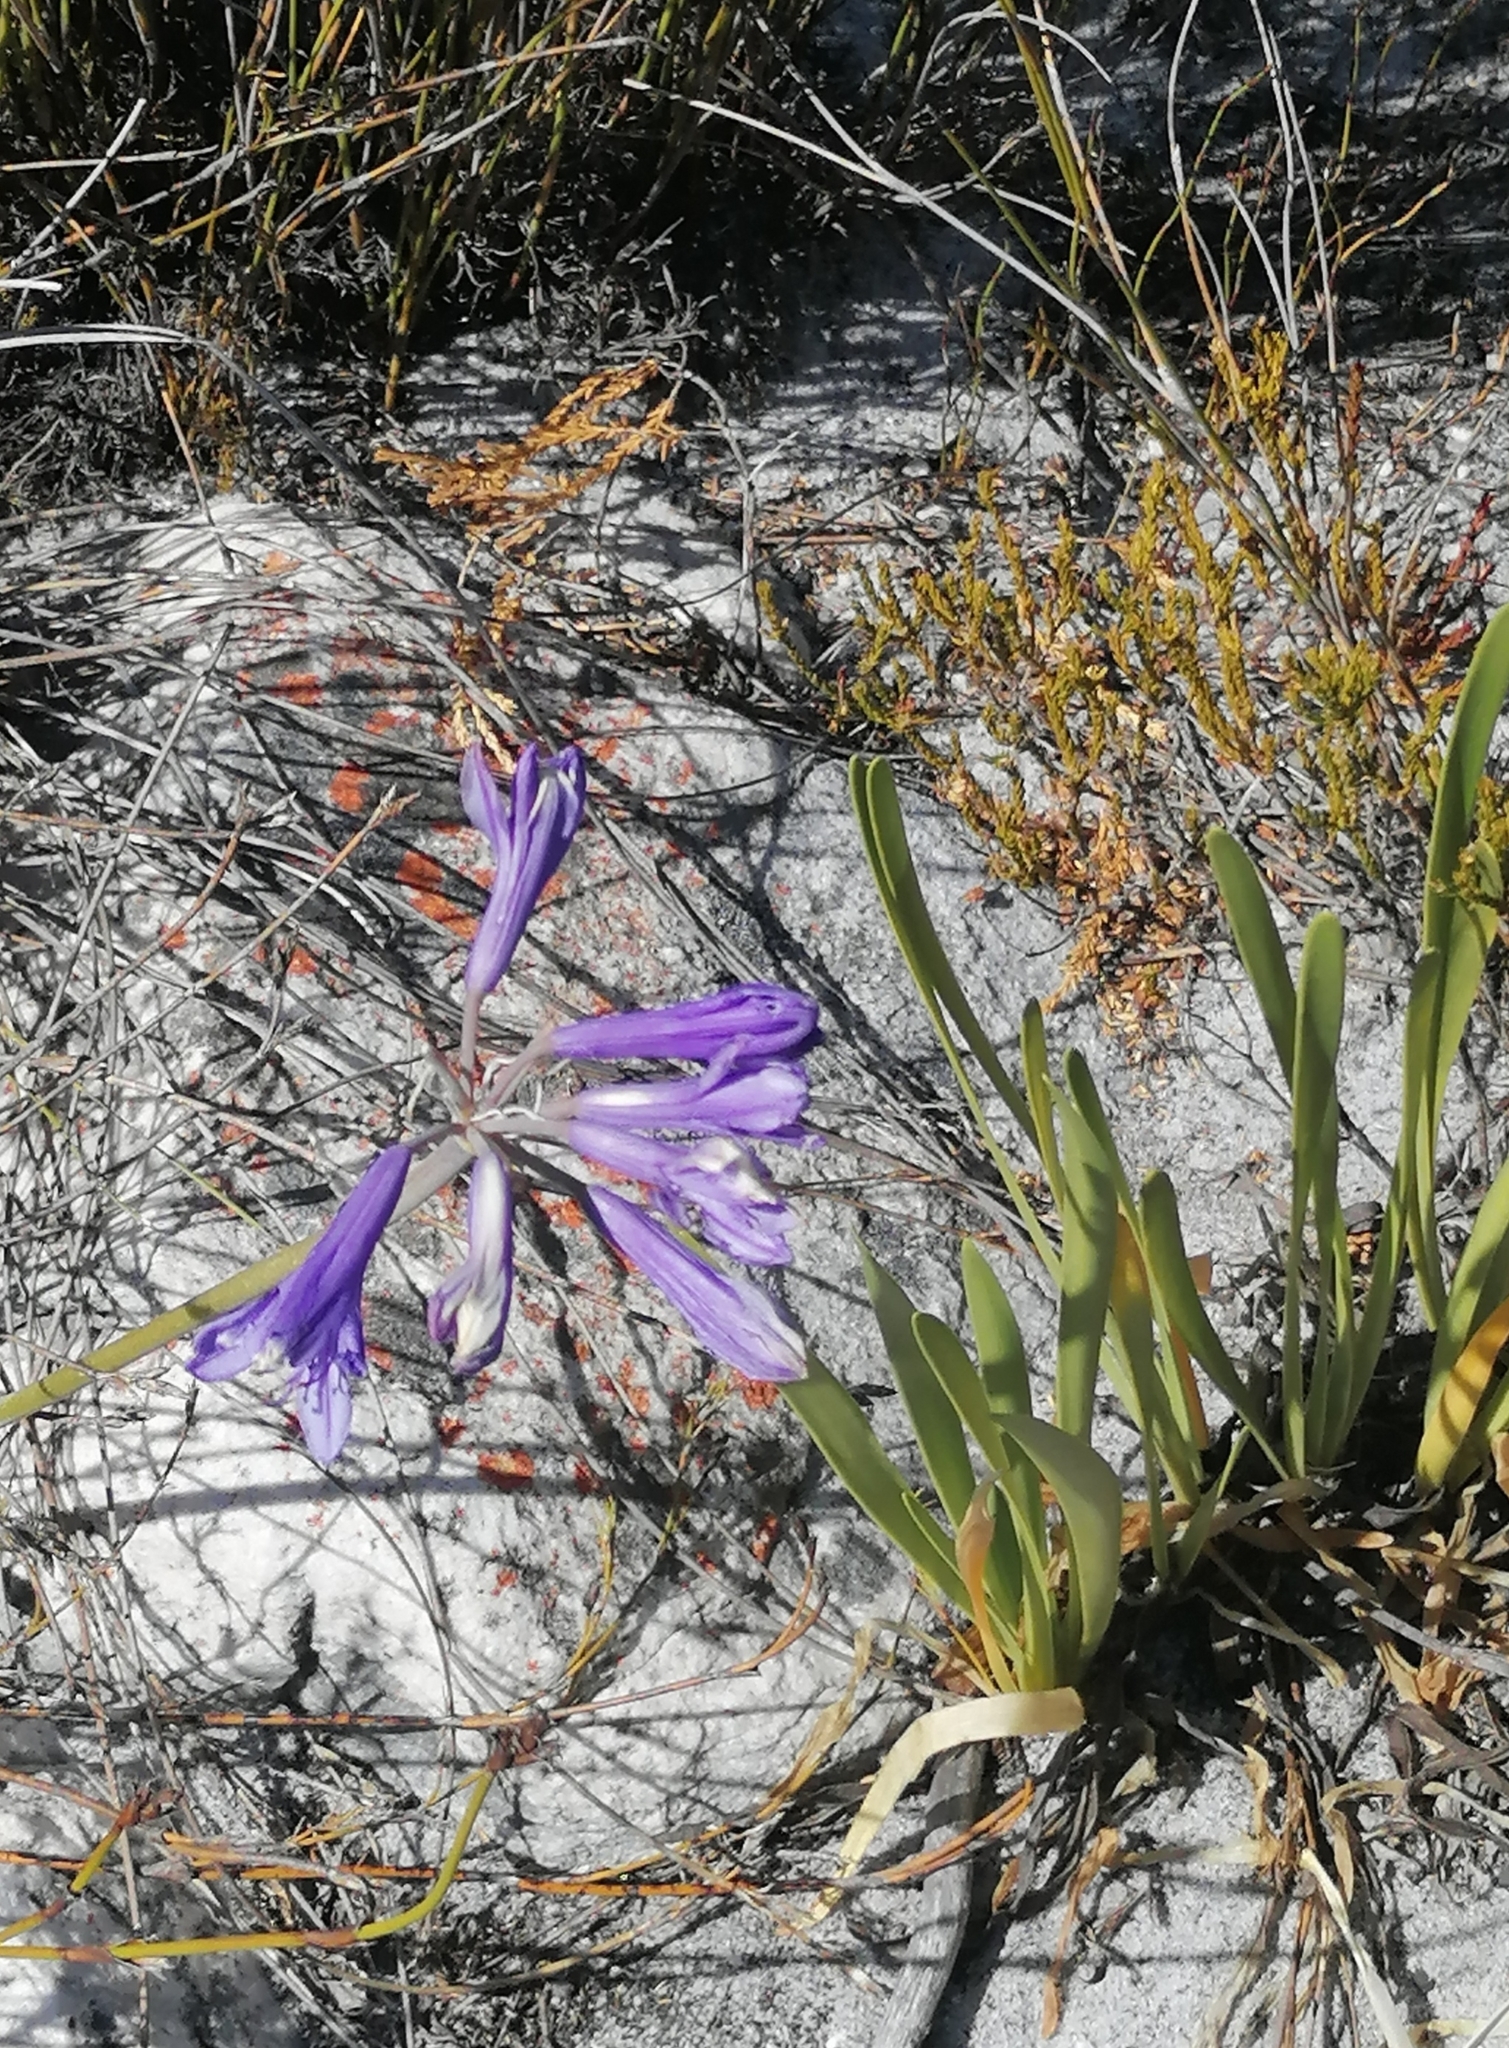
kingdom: Plantae
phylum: Tracheophyta
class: Liliopsida
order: Asparagales
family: Amaryllidaceae
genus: Agapanthus
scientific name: Agapanthus africanus
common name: Lily-of-the-nile
